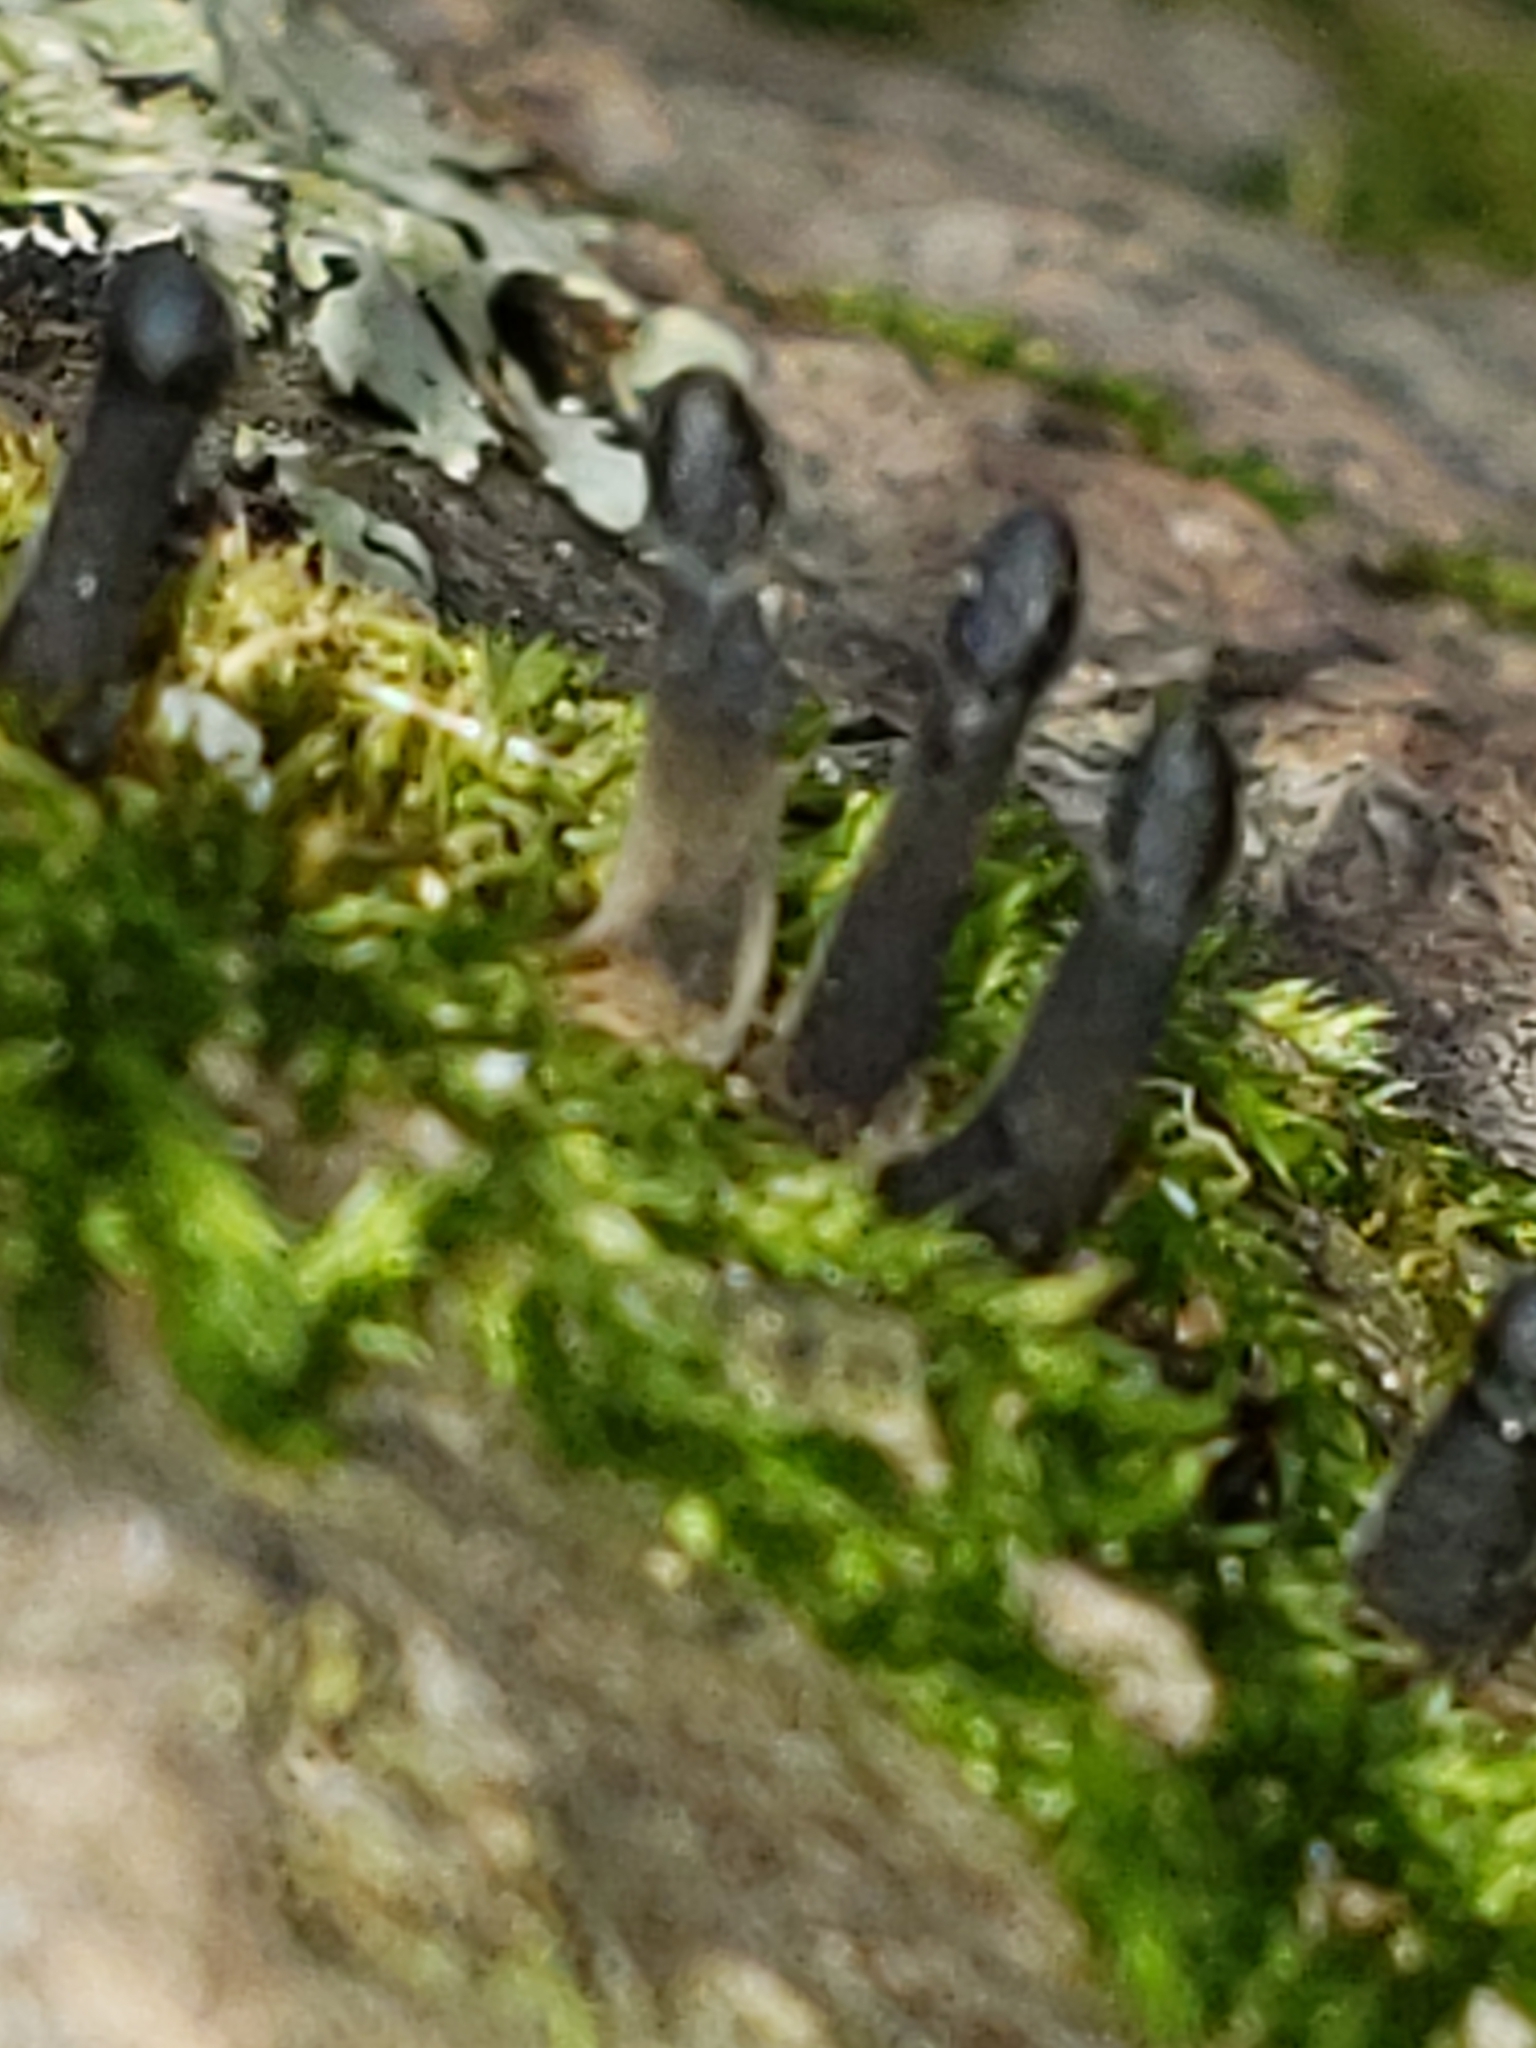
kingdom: Fungi
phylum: Ascomycota
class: Leotiomycetes
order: Helotiales
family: Bulgariaceae
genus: Holwaya
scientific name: Holwaya mucida
